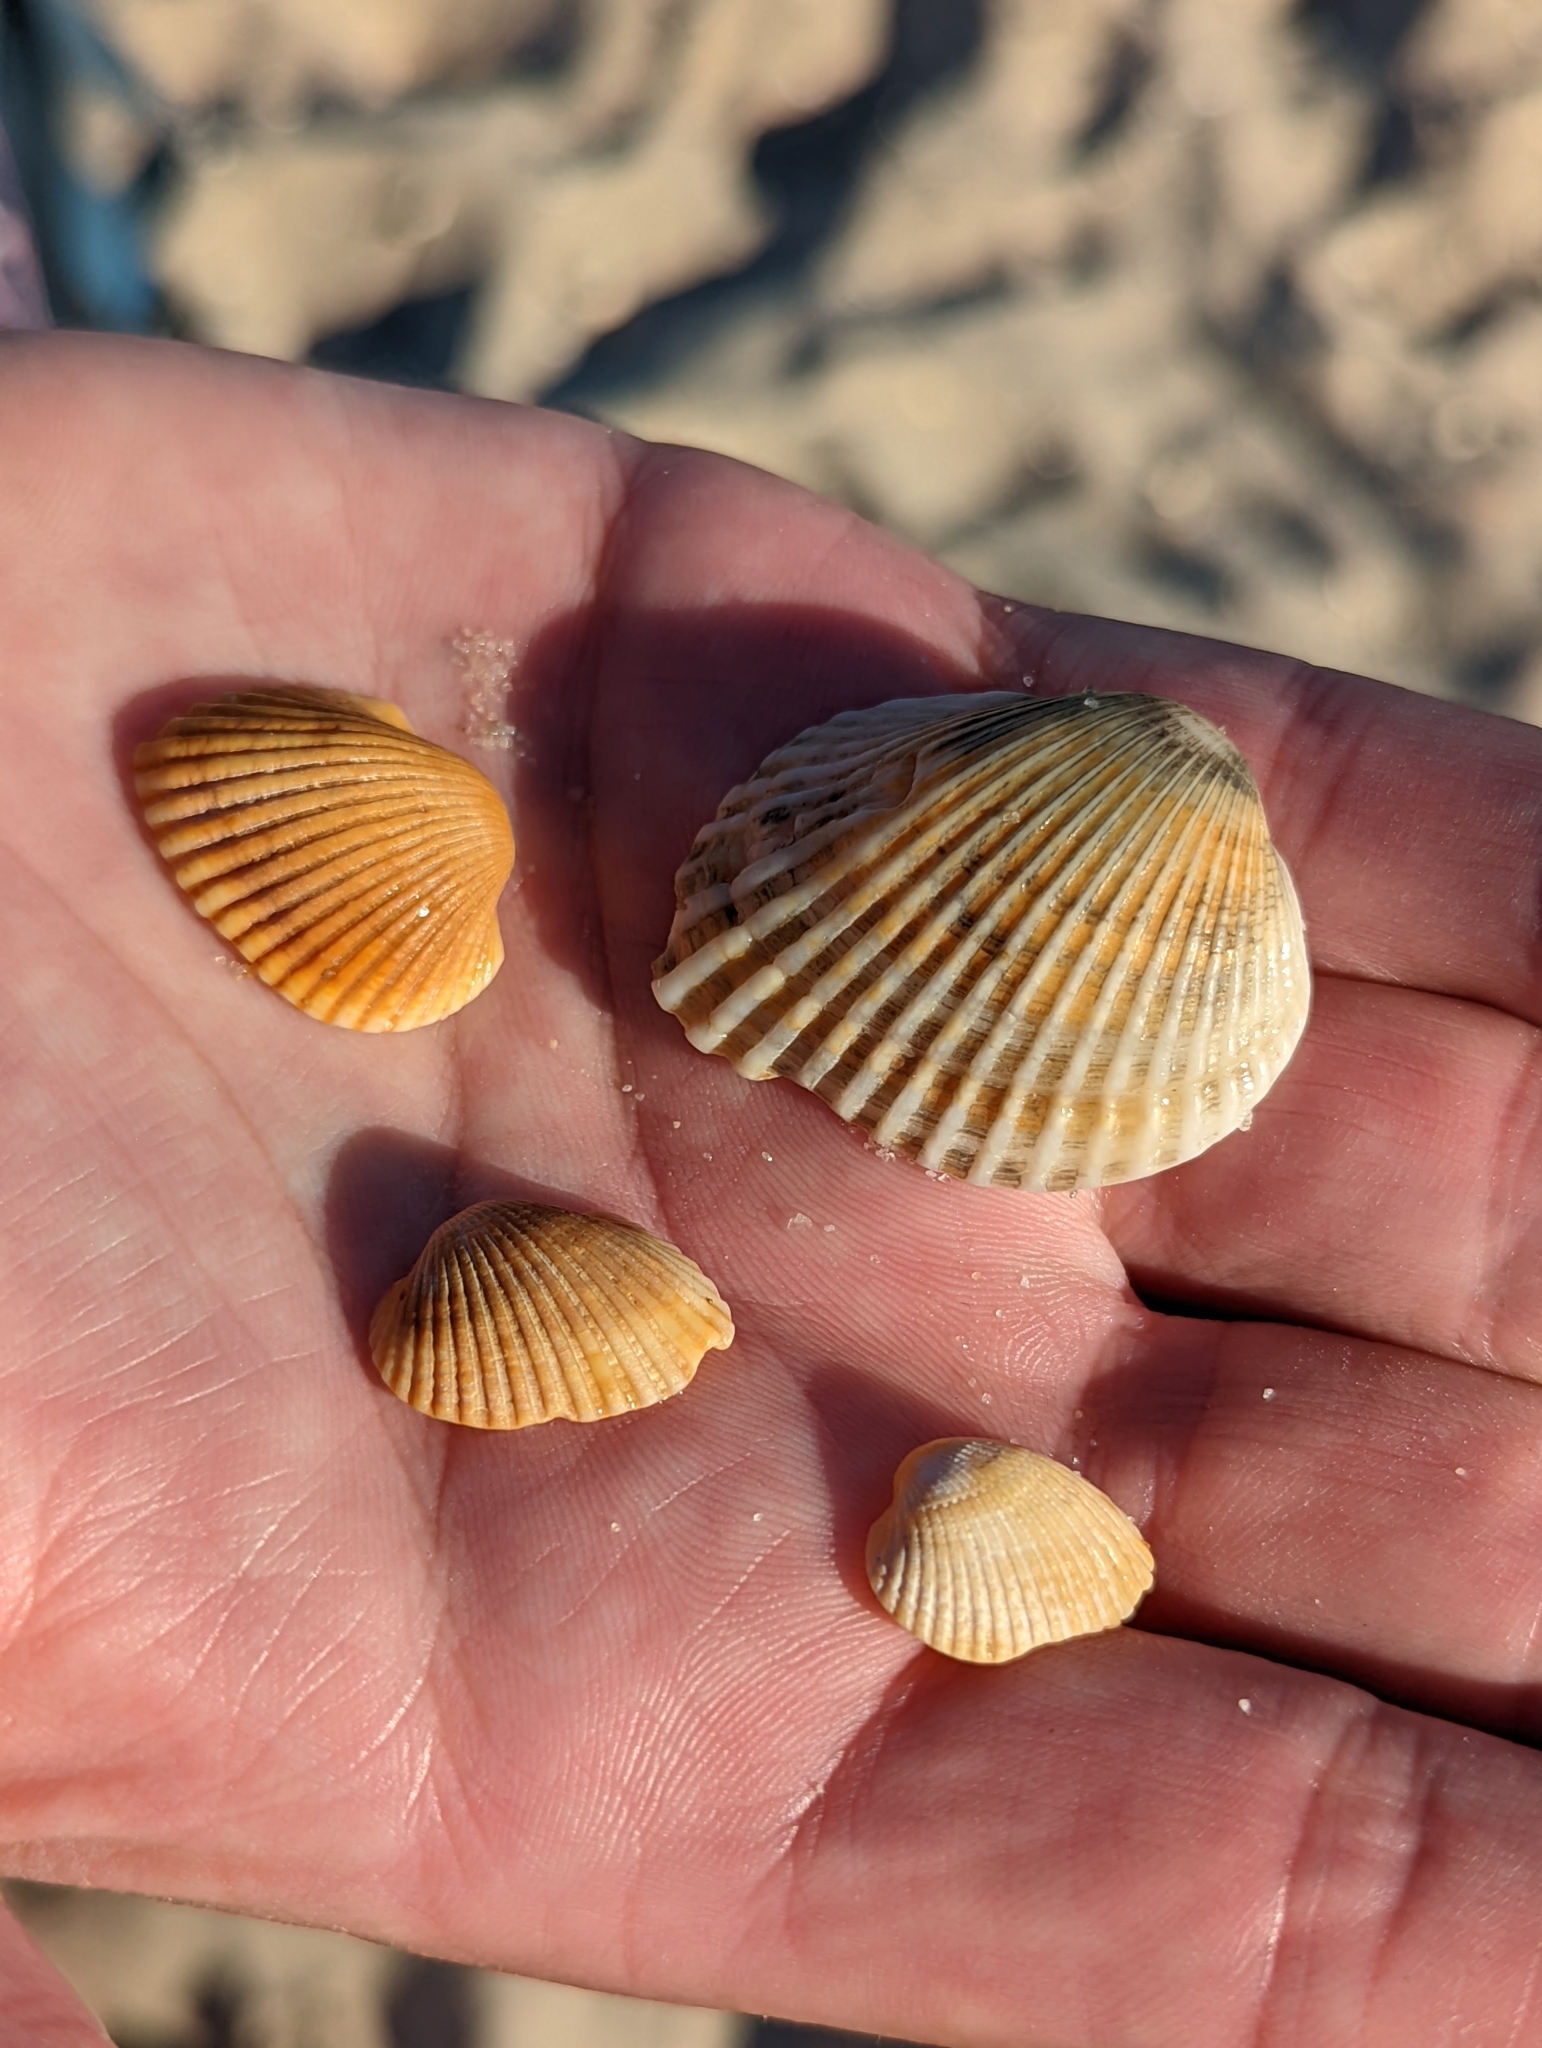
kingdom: Animalia
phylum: Mollusca
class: Bivalvia
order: Arcida
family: Arcidae
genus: Anadara
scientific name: Anadara trapezia
